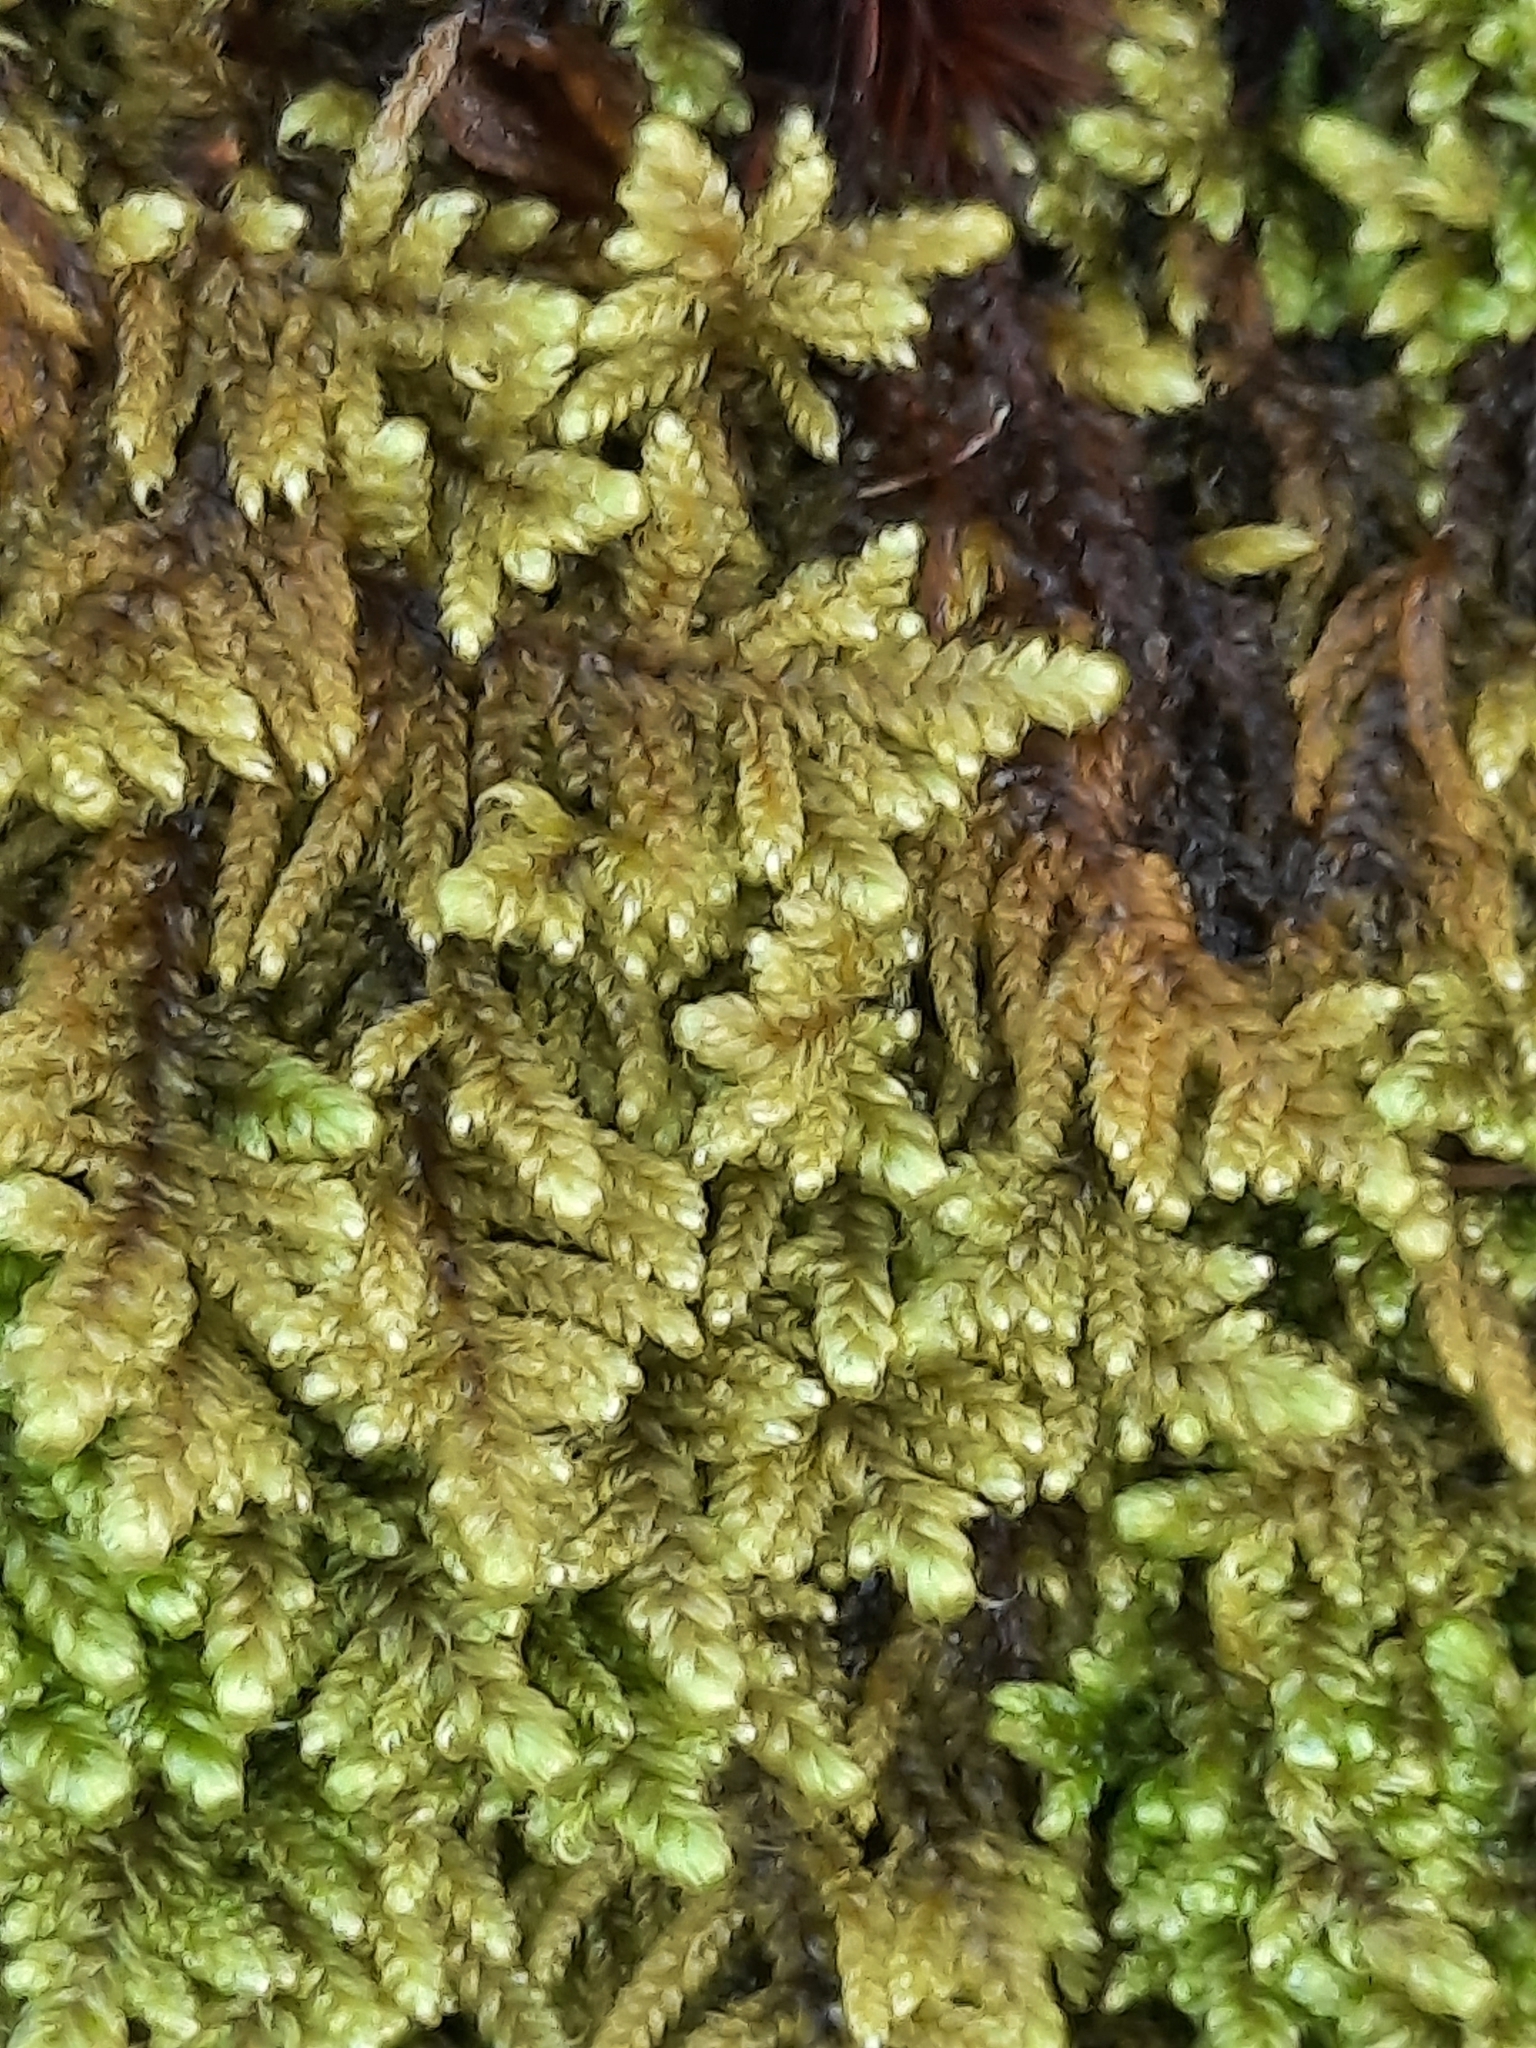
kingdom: Plantae
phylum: Bryophyta
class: Bryopsida
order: Hypnales
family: Callicladiaceae
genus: Callicladium
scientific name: Callicladium imponens
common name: Brocade moss
